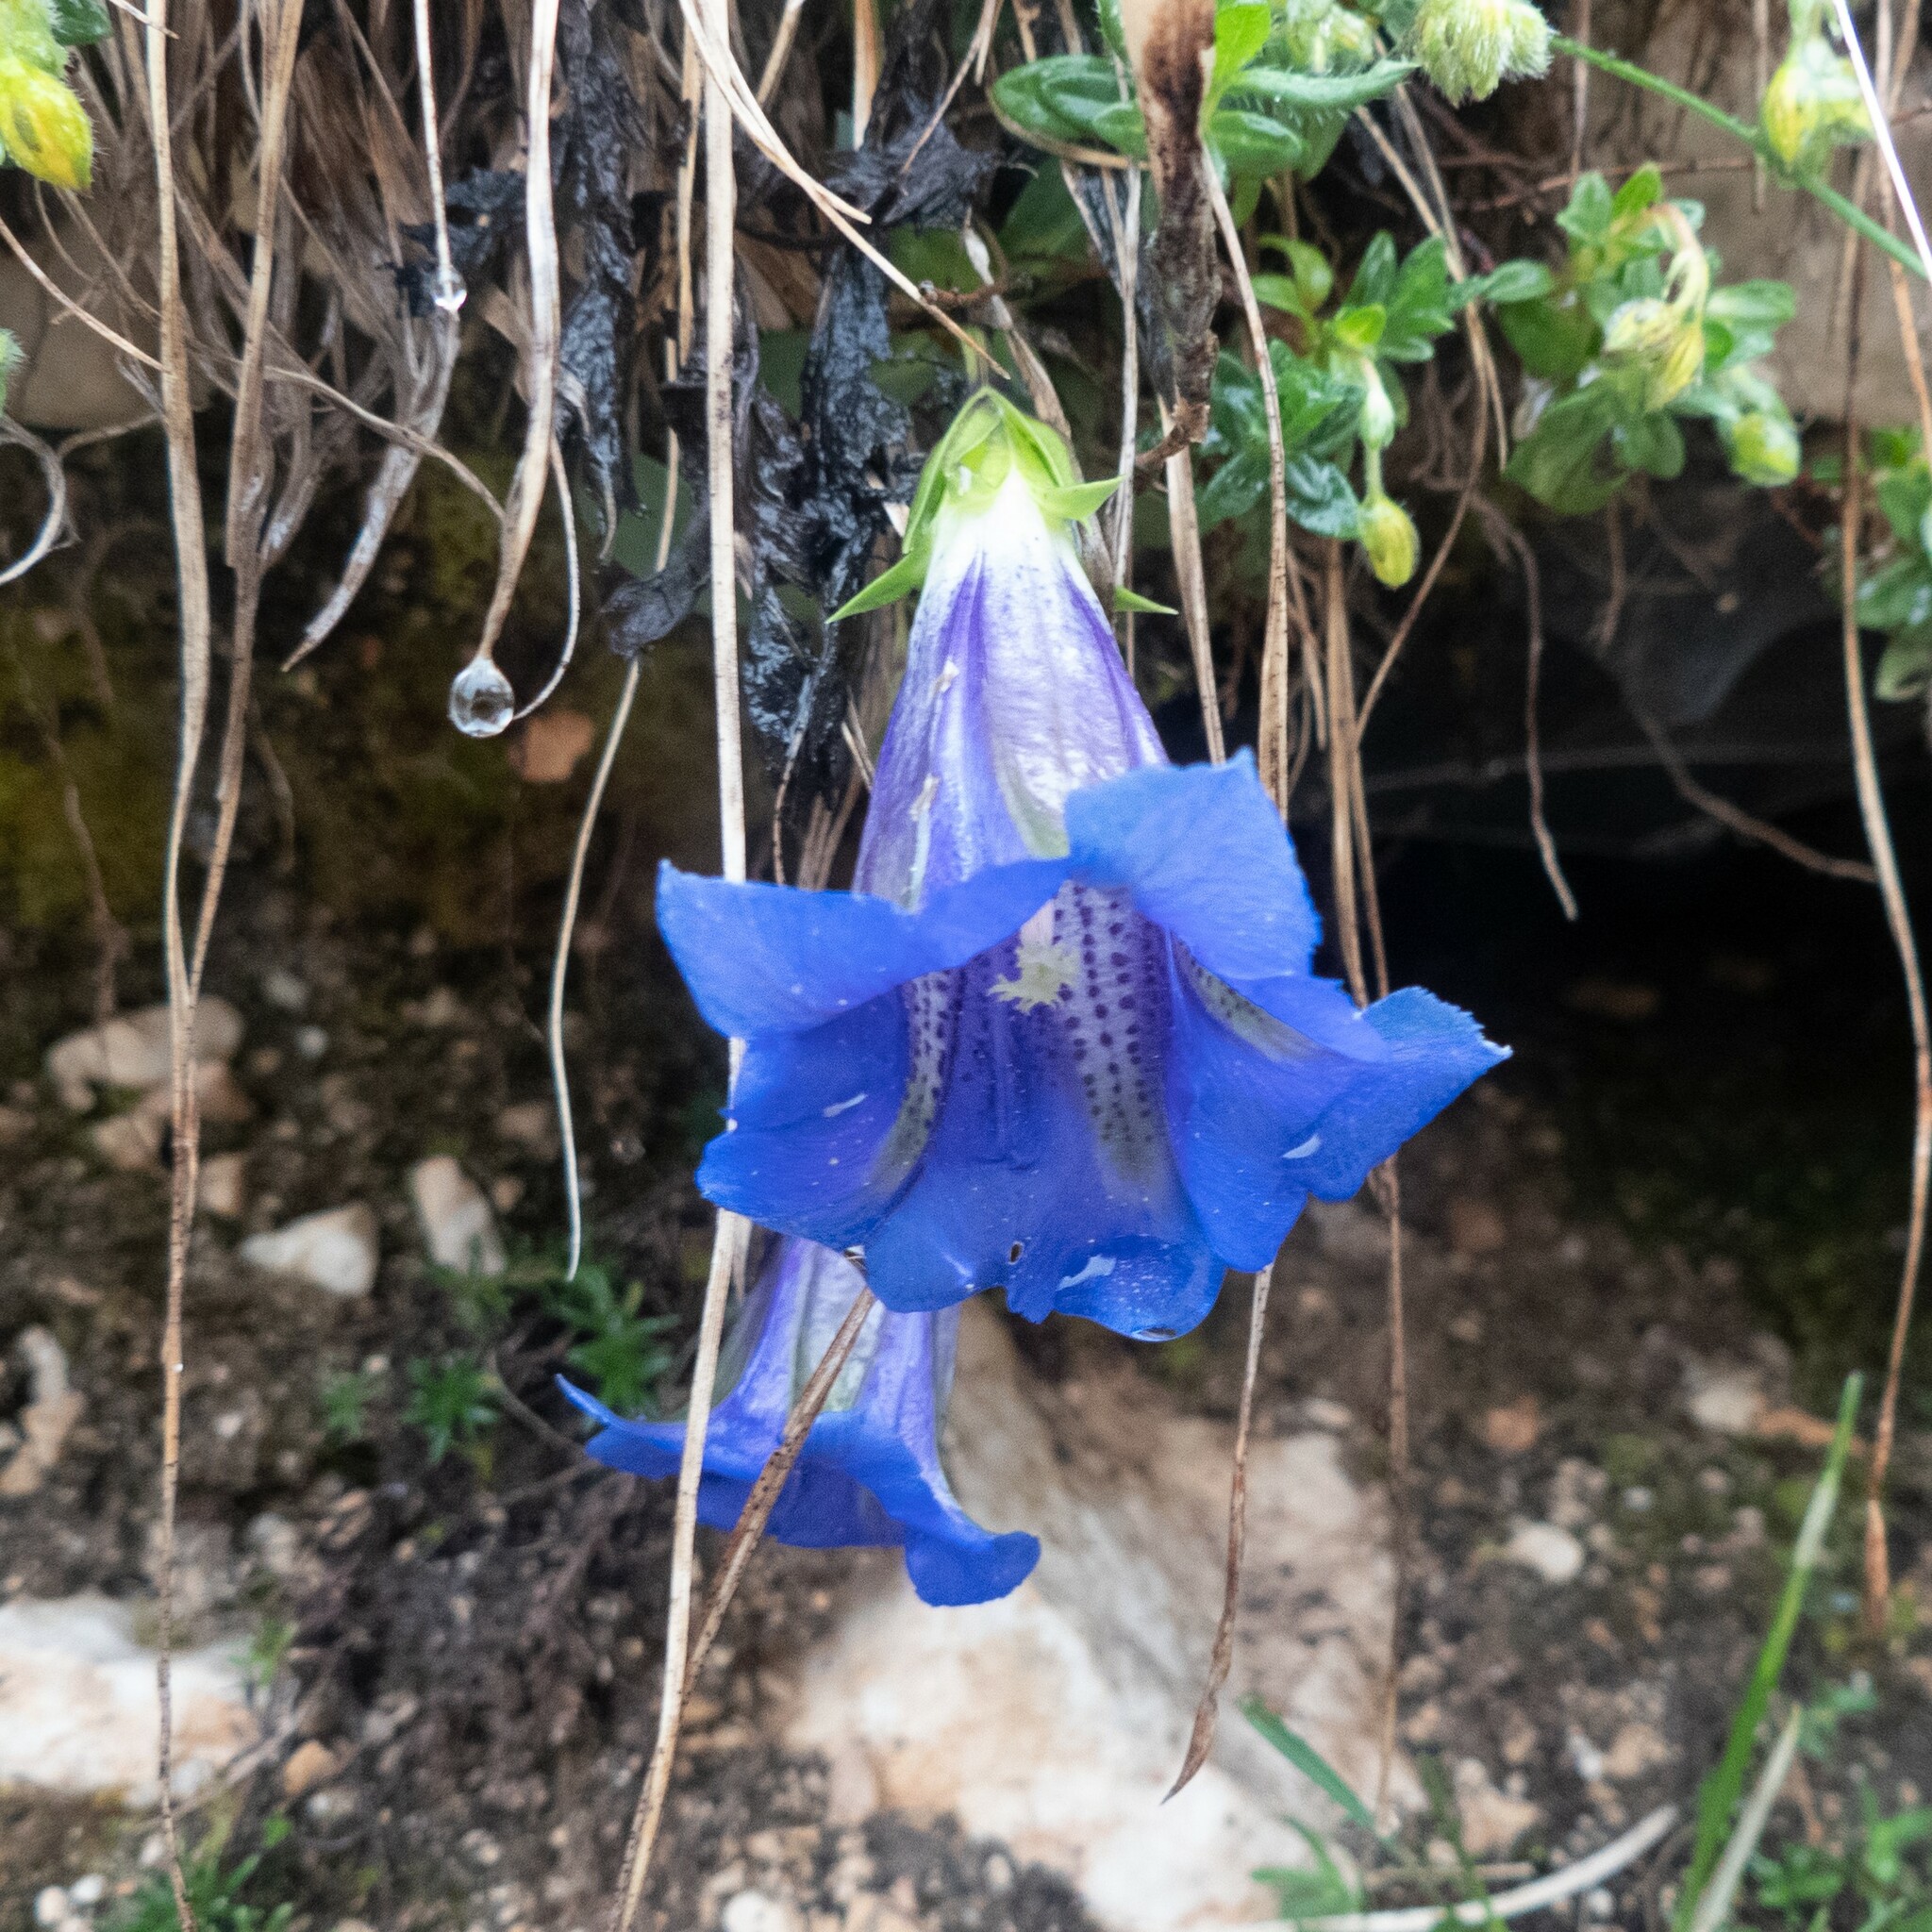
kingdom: Plantae
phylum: Tracheophyta
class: Magnoliopsida
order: Gentianales
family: Gentianaceae
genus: Gentiana
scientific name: Gentiana clusii
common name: Trumpet gentian
